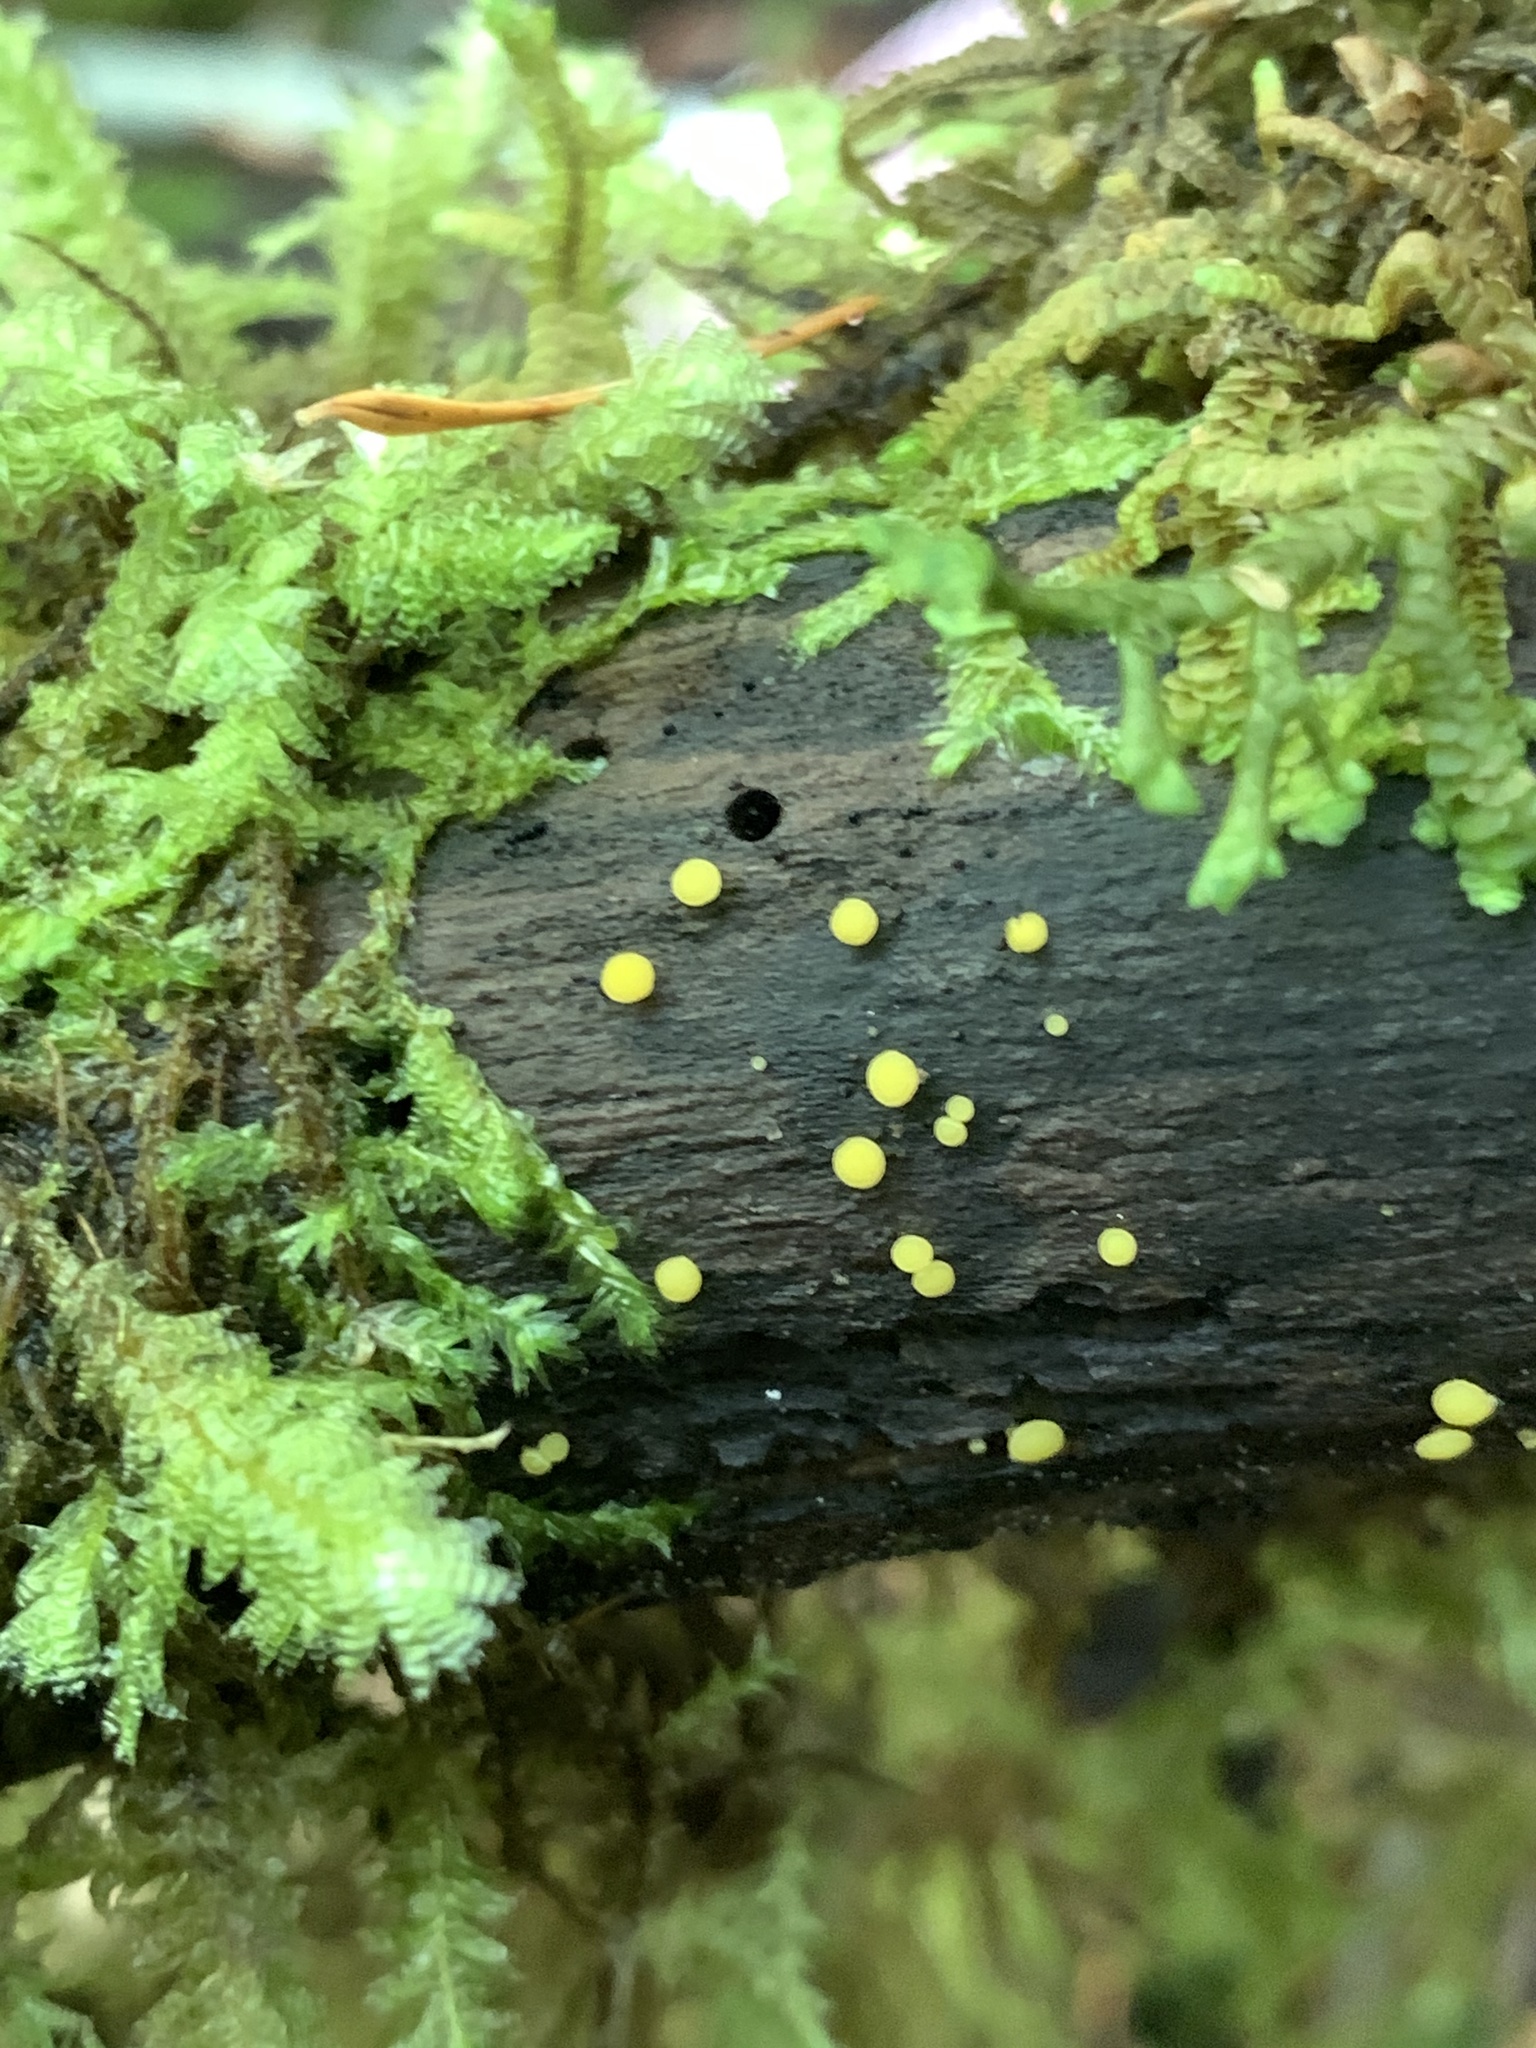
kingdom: Fungi
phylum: Ascomycota
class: Leotiomycetes
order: Helotiales
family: Pezizellaceae
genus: Calycina
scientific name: Calycina citrina
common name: Yellow fairy cups
